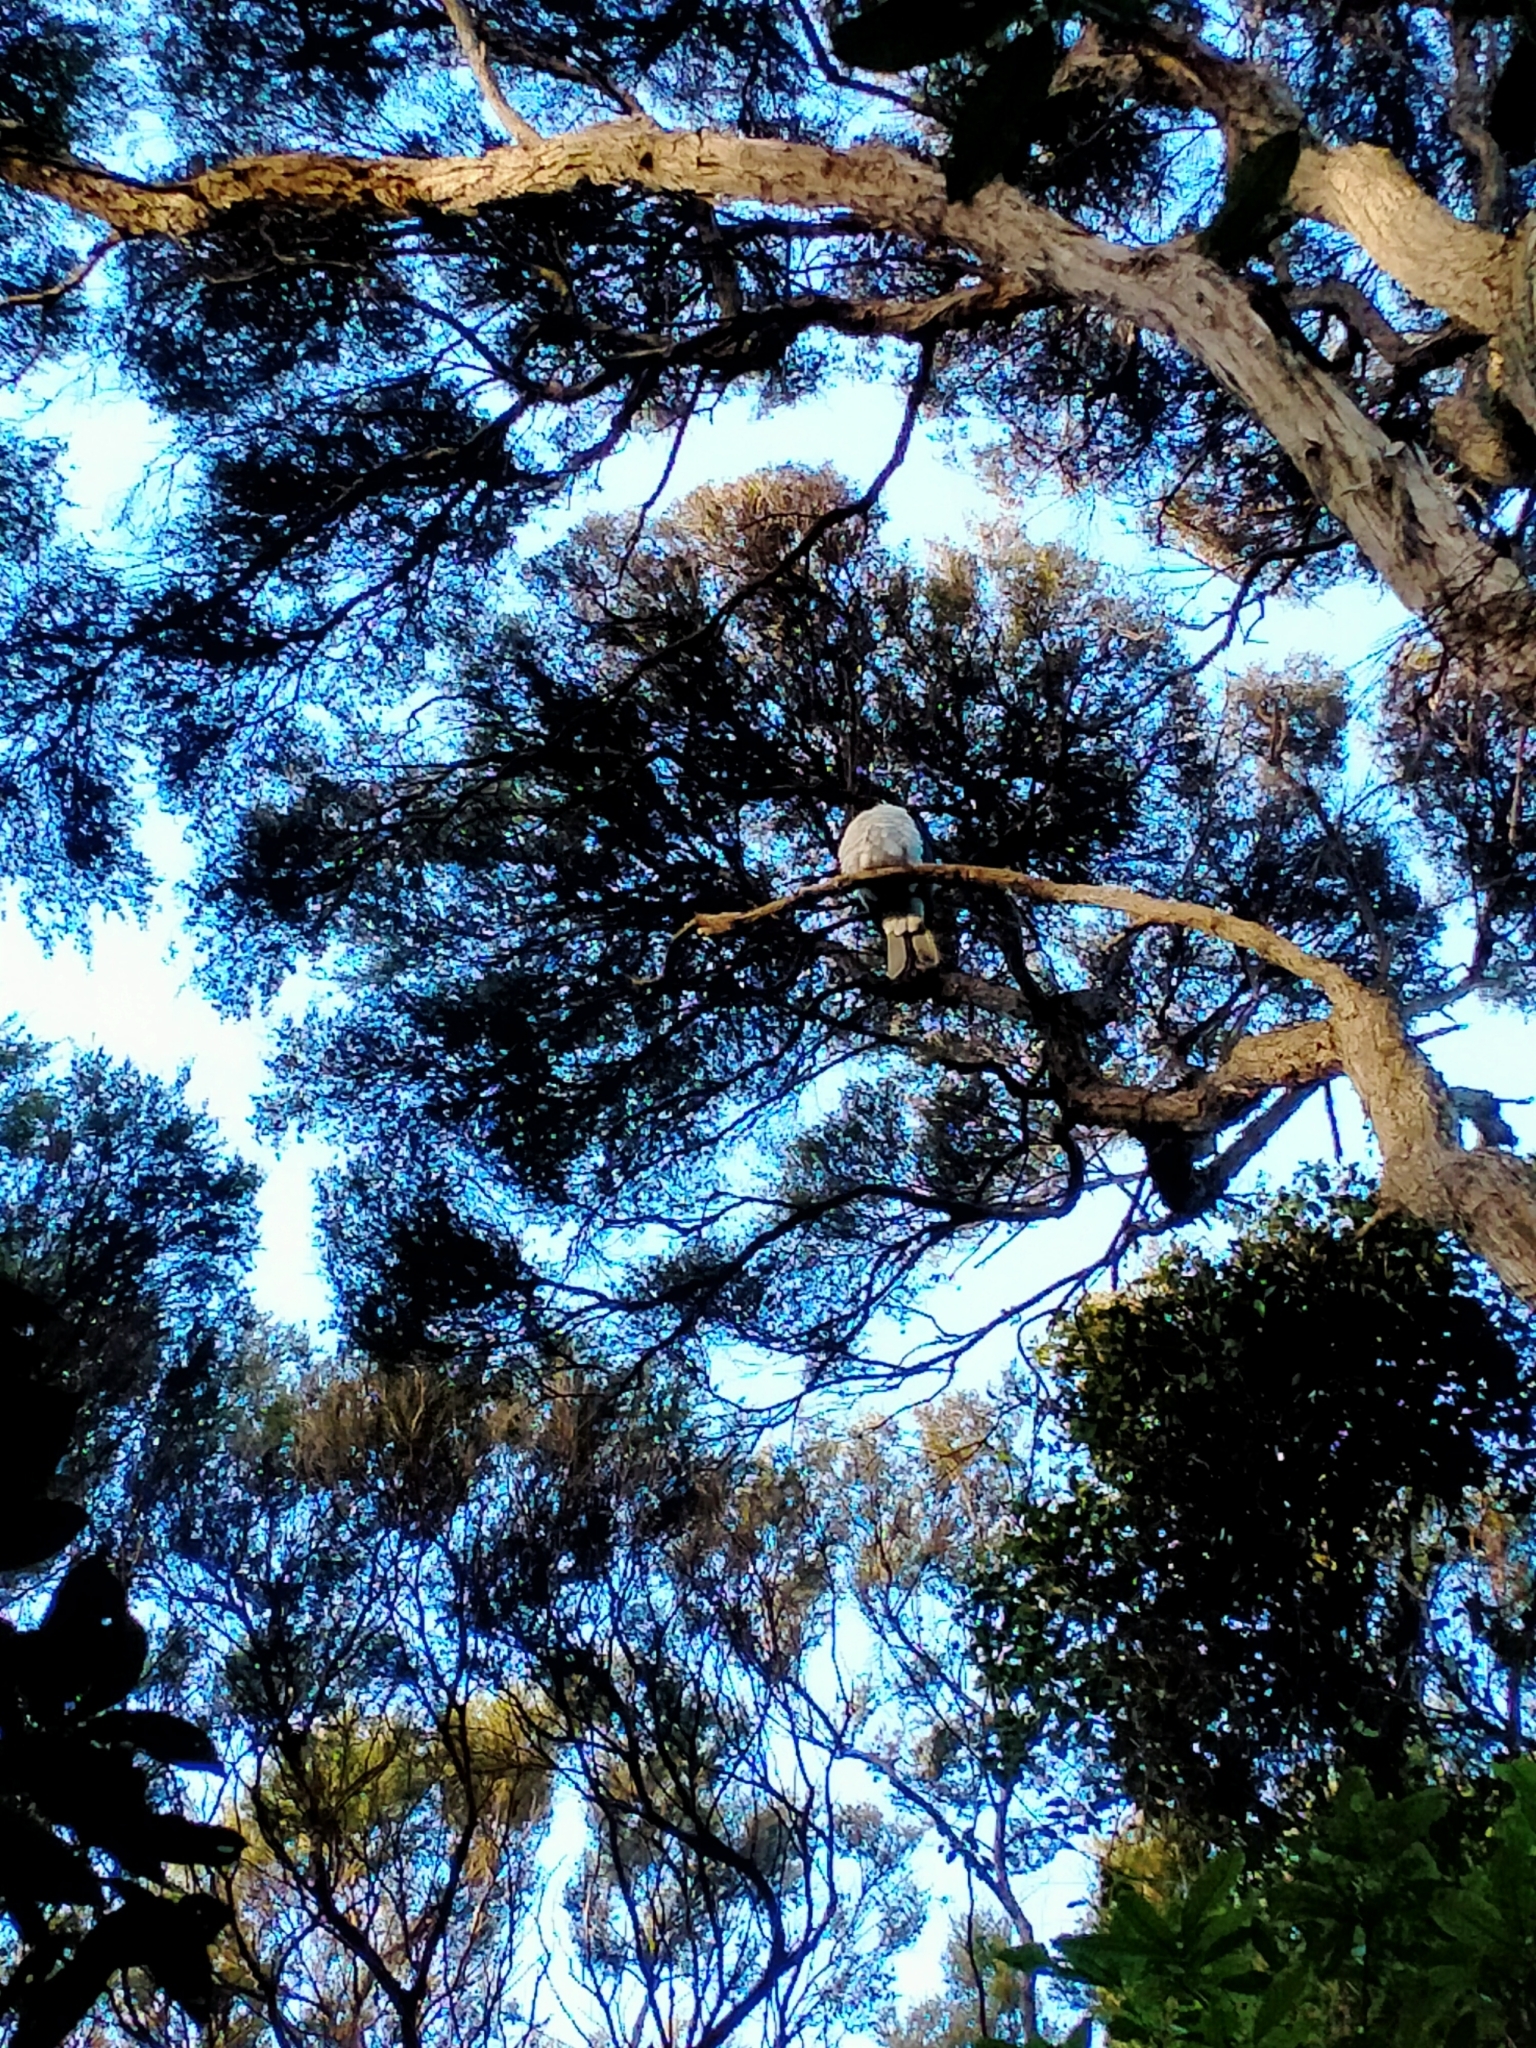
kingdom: Animalia
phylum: Chordata
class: Aves
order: Columbiformes
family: Columbidae
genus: Hemiphaga
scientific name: Hemiphaga novaeseelandiae
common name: New zealand pigeon
